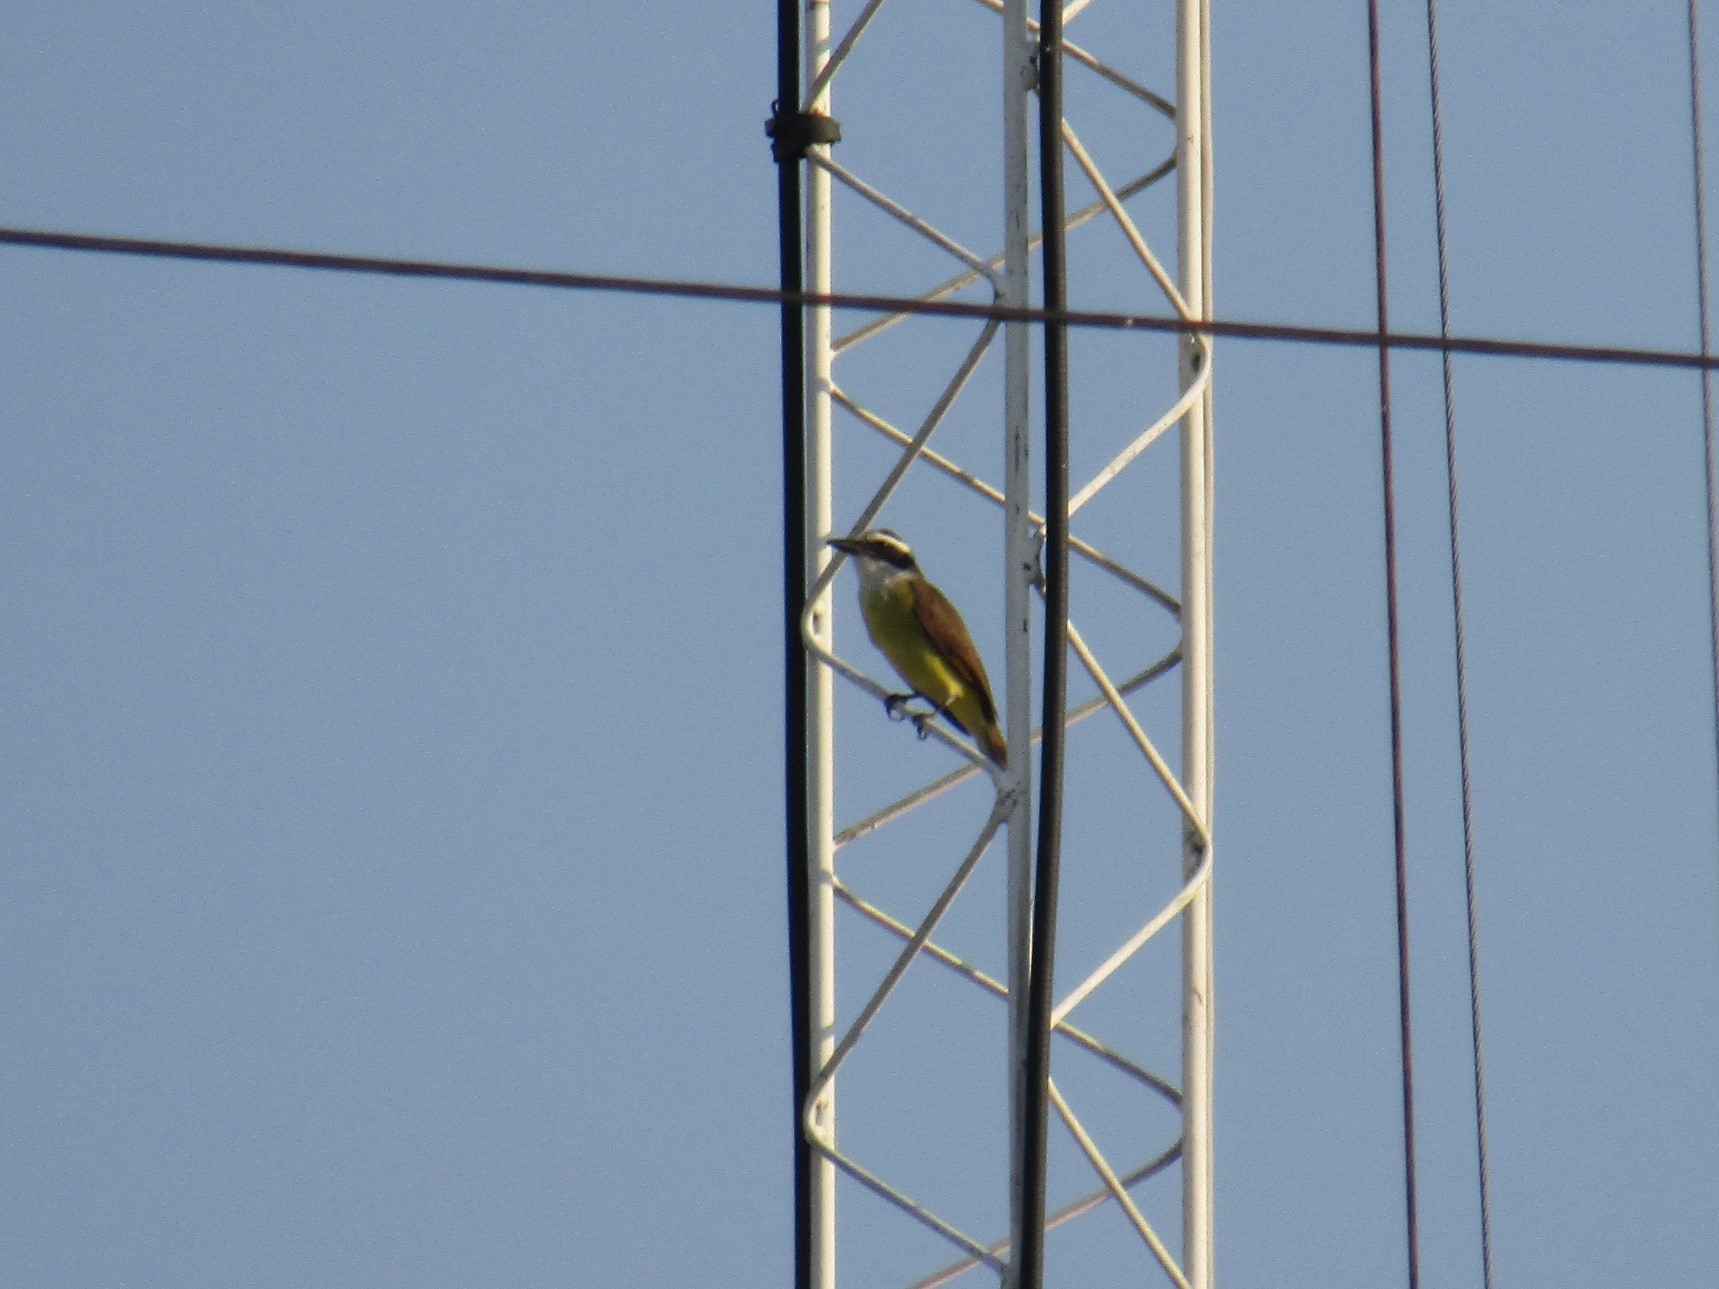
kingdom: Animalia
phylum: Chordata
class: Aves
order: Passeriformes
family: Tyrannidae
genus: Pitangus
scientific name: Pitangus sulphuratus
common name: Great kiskadee
